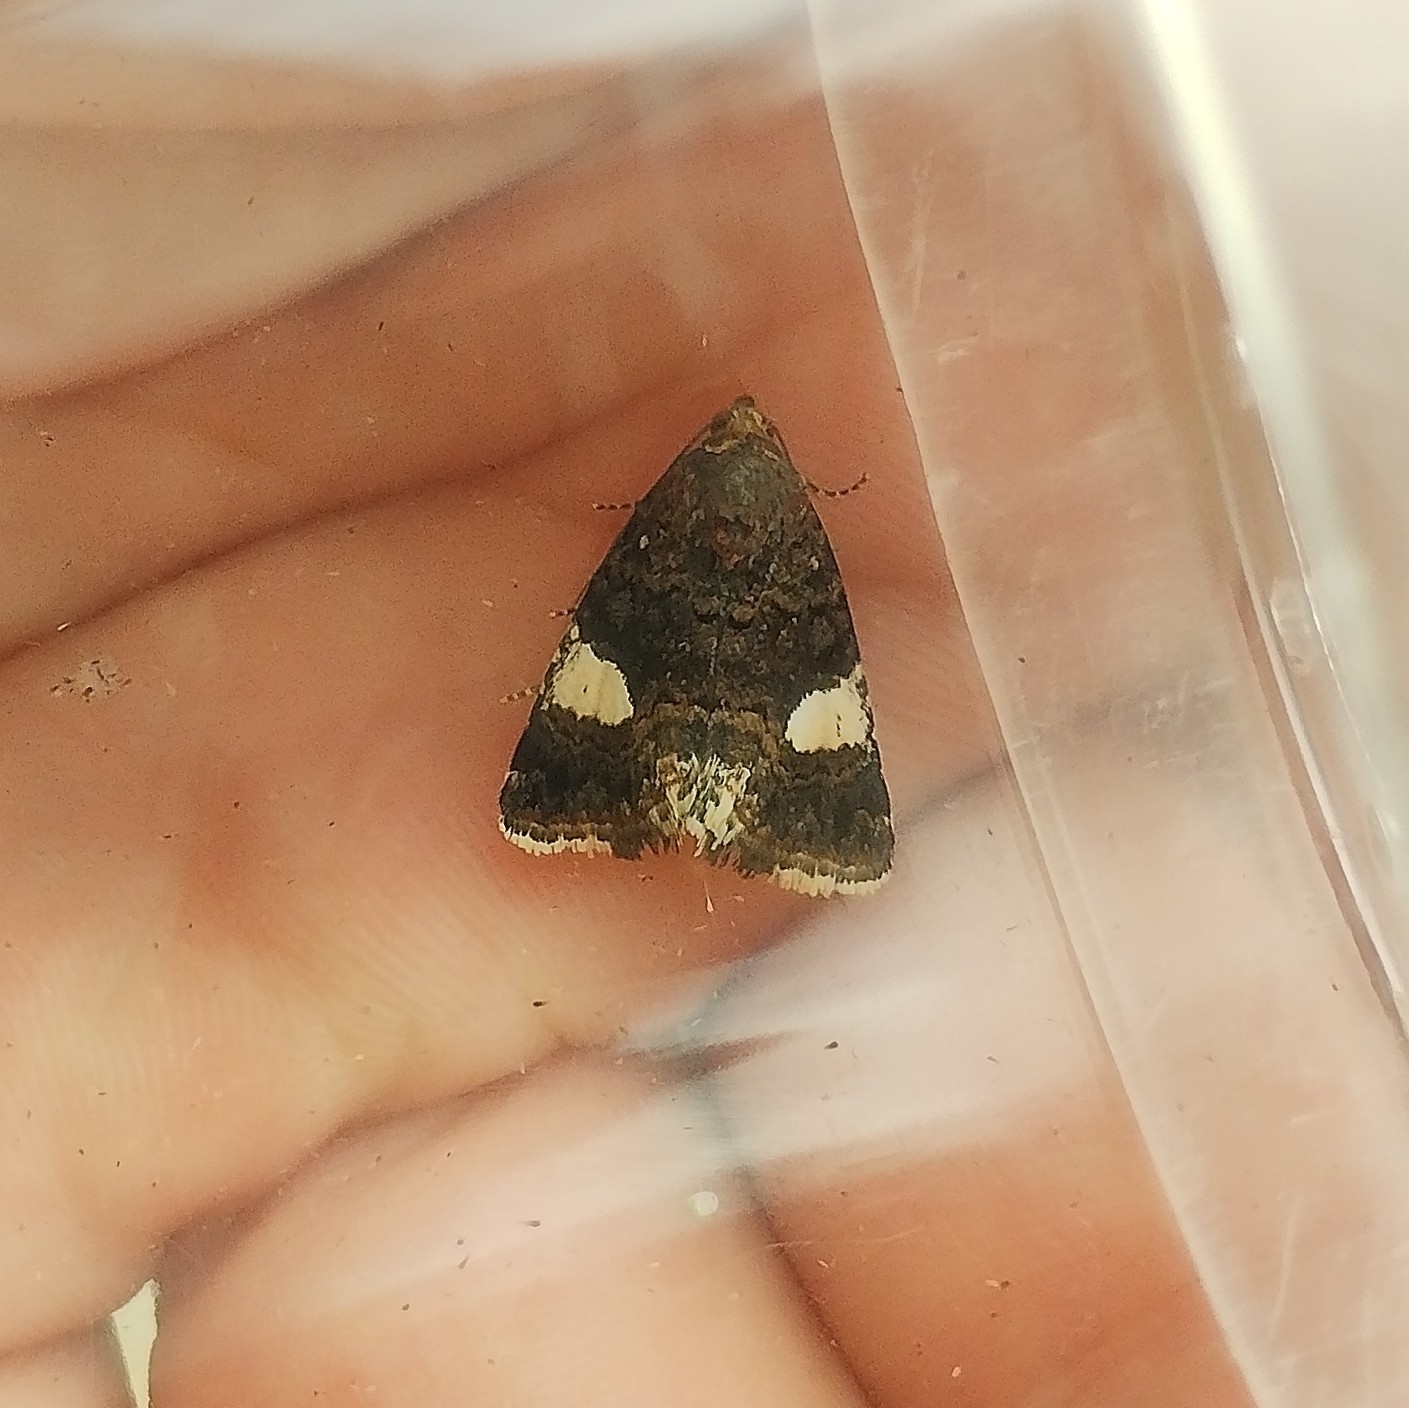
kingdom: Animalia
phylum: Arthropoda
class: Insecta
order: Lepidoptera
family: Erebidae
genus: Tyta
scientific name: Tyta luctuosa
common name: Four-spotted
